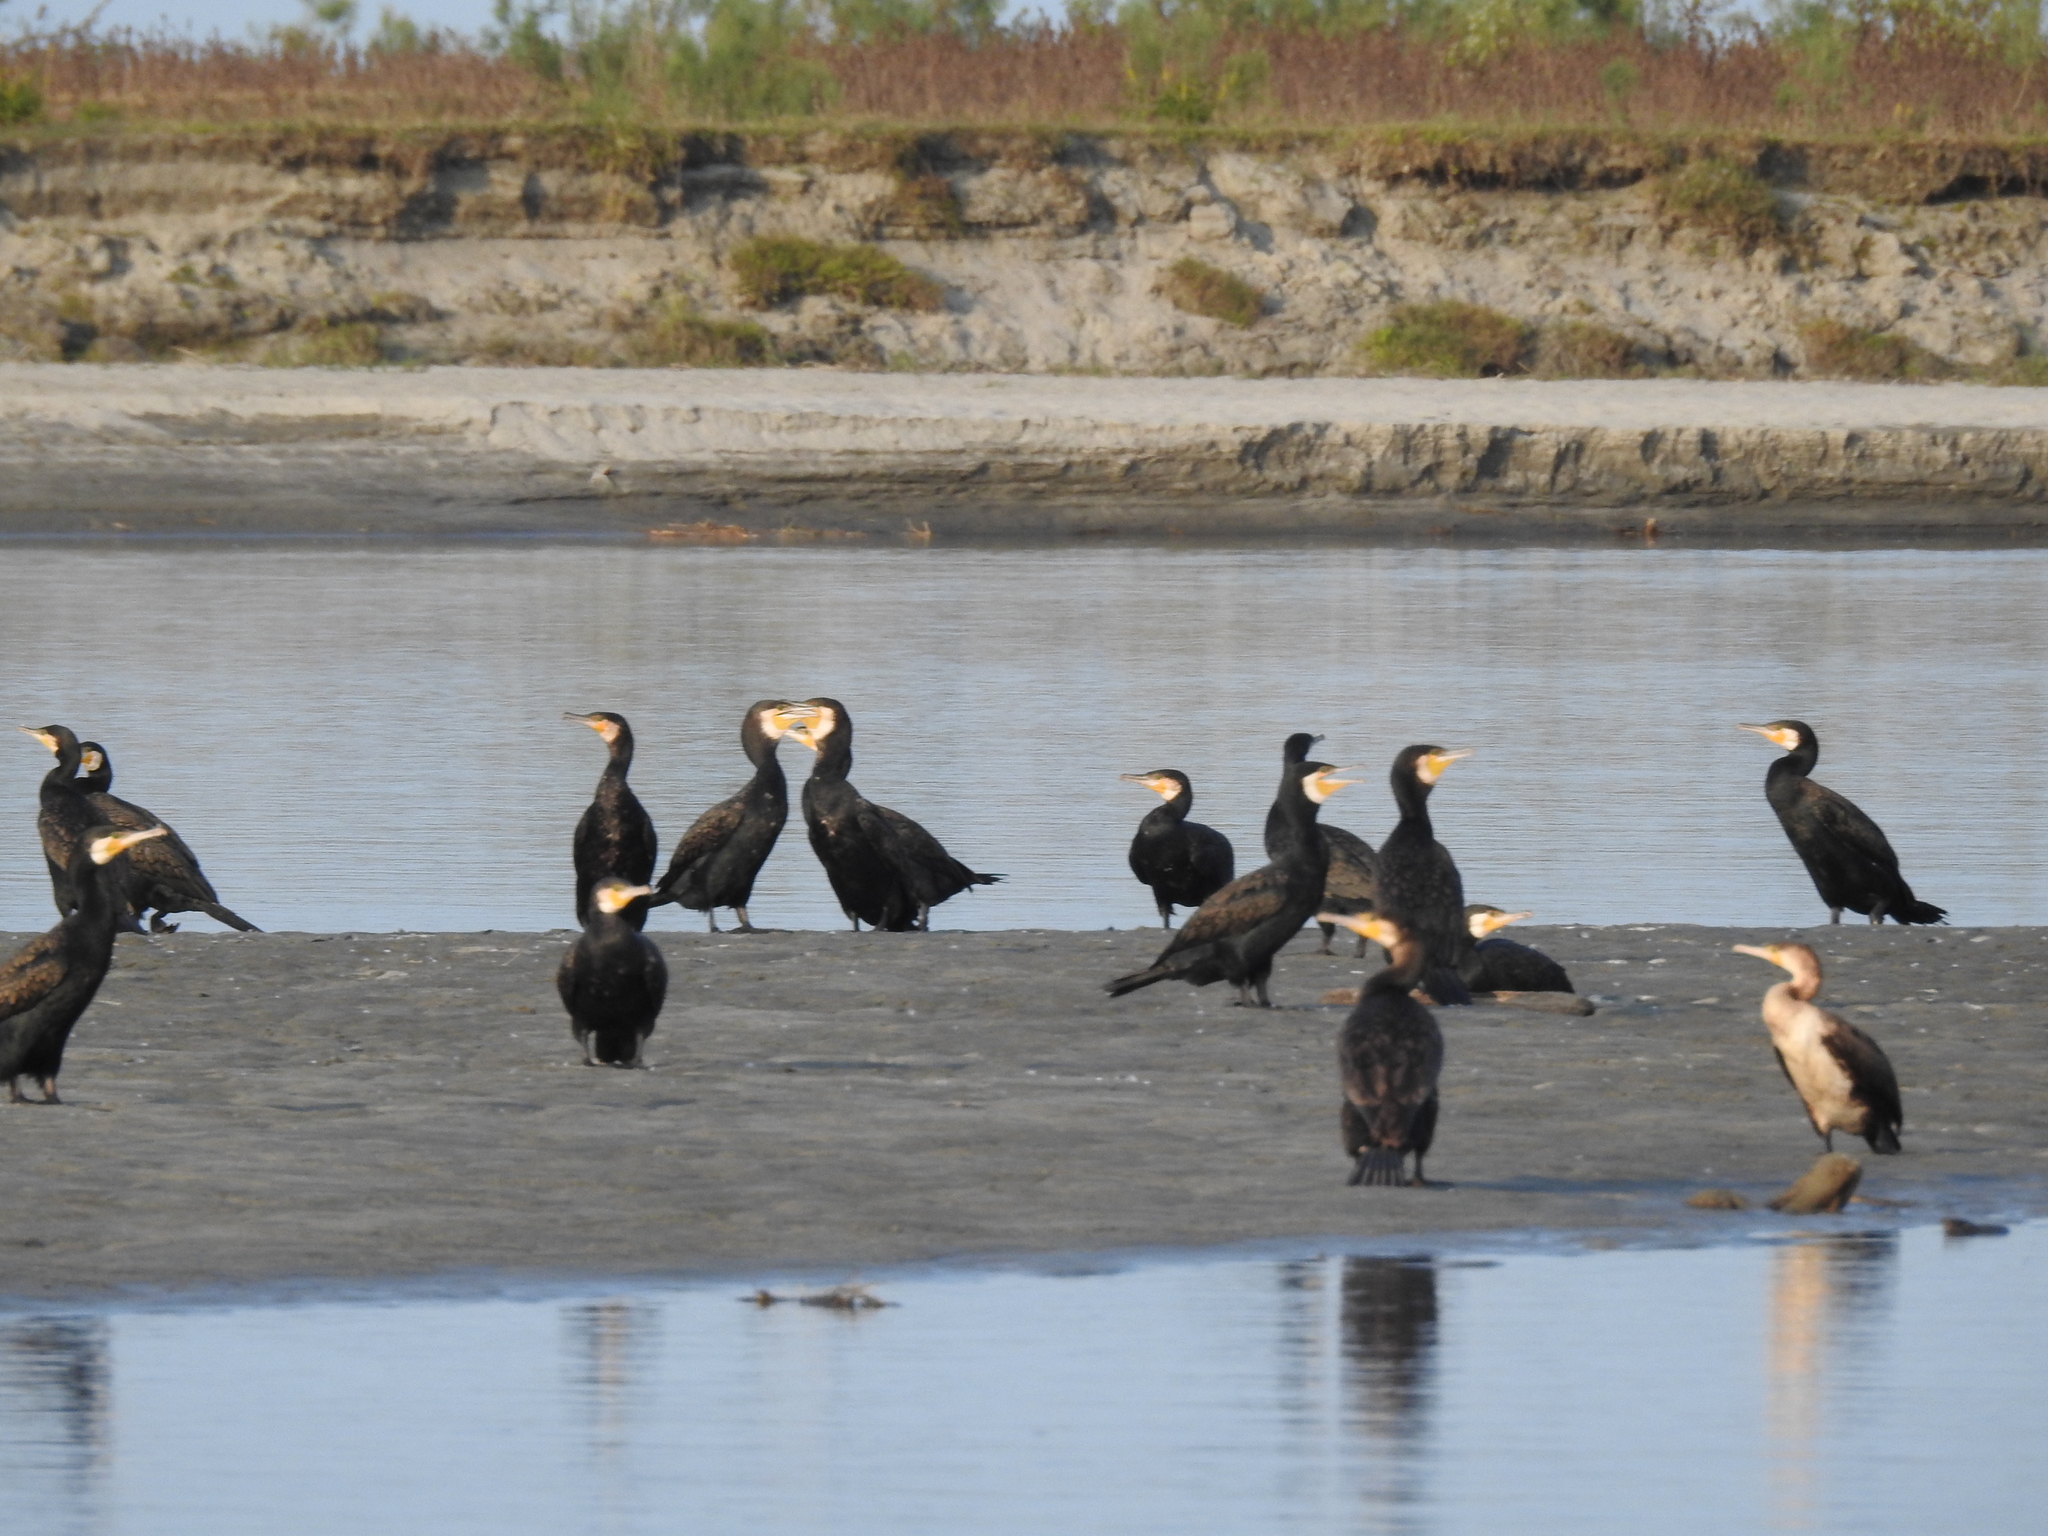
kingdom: Animalia
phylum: Chordata
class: Aves
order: Suliformes
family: Phalacrocoracidae
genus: Phalacrocorax
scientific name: Phalacrocorax carbo
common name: Great cormorant
